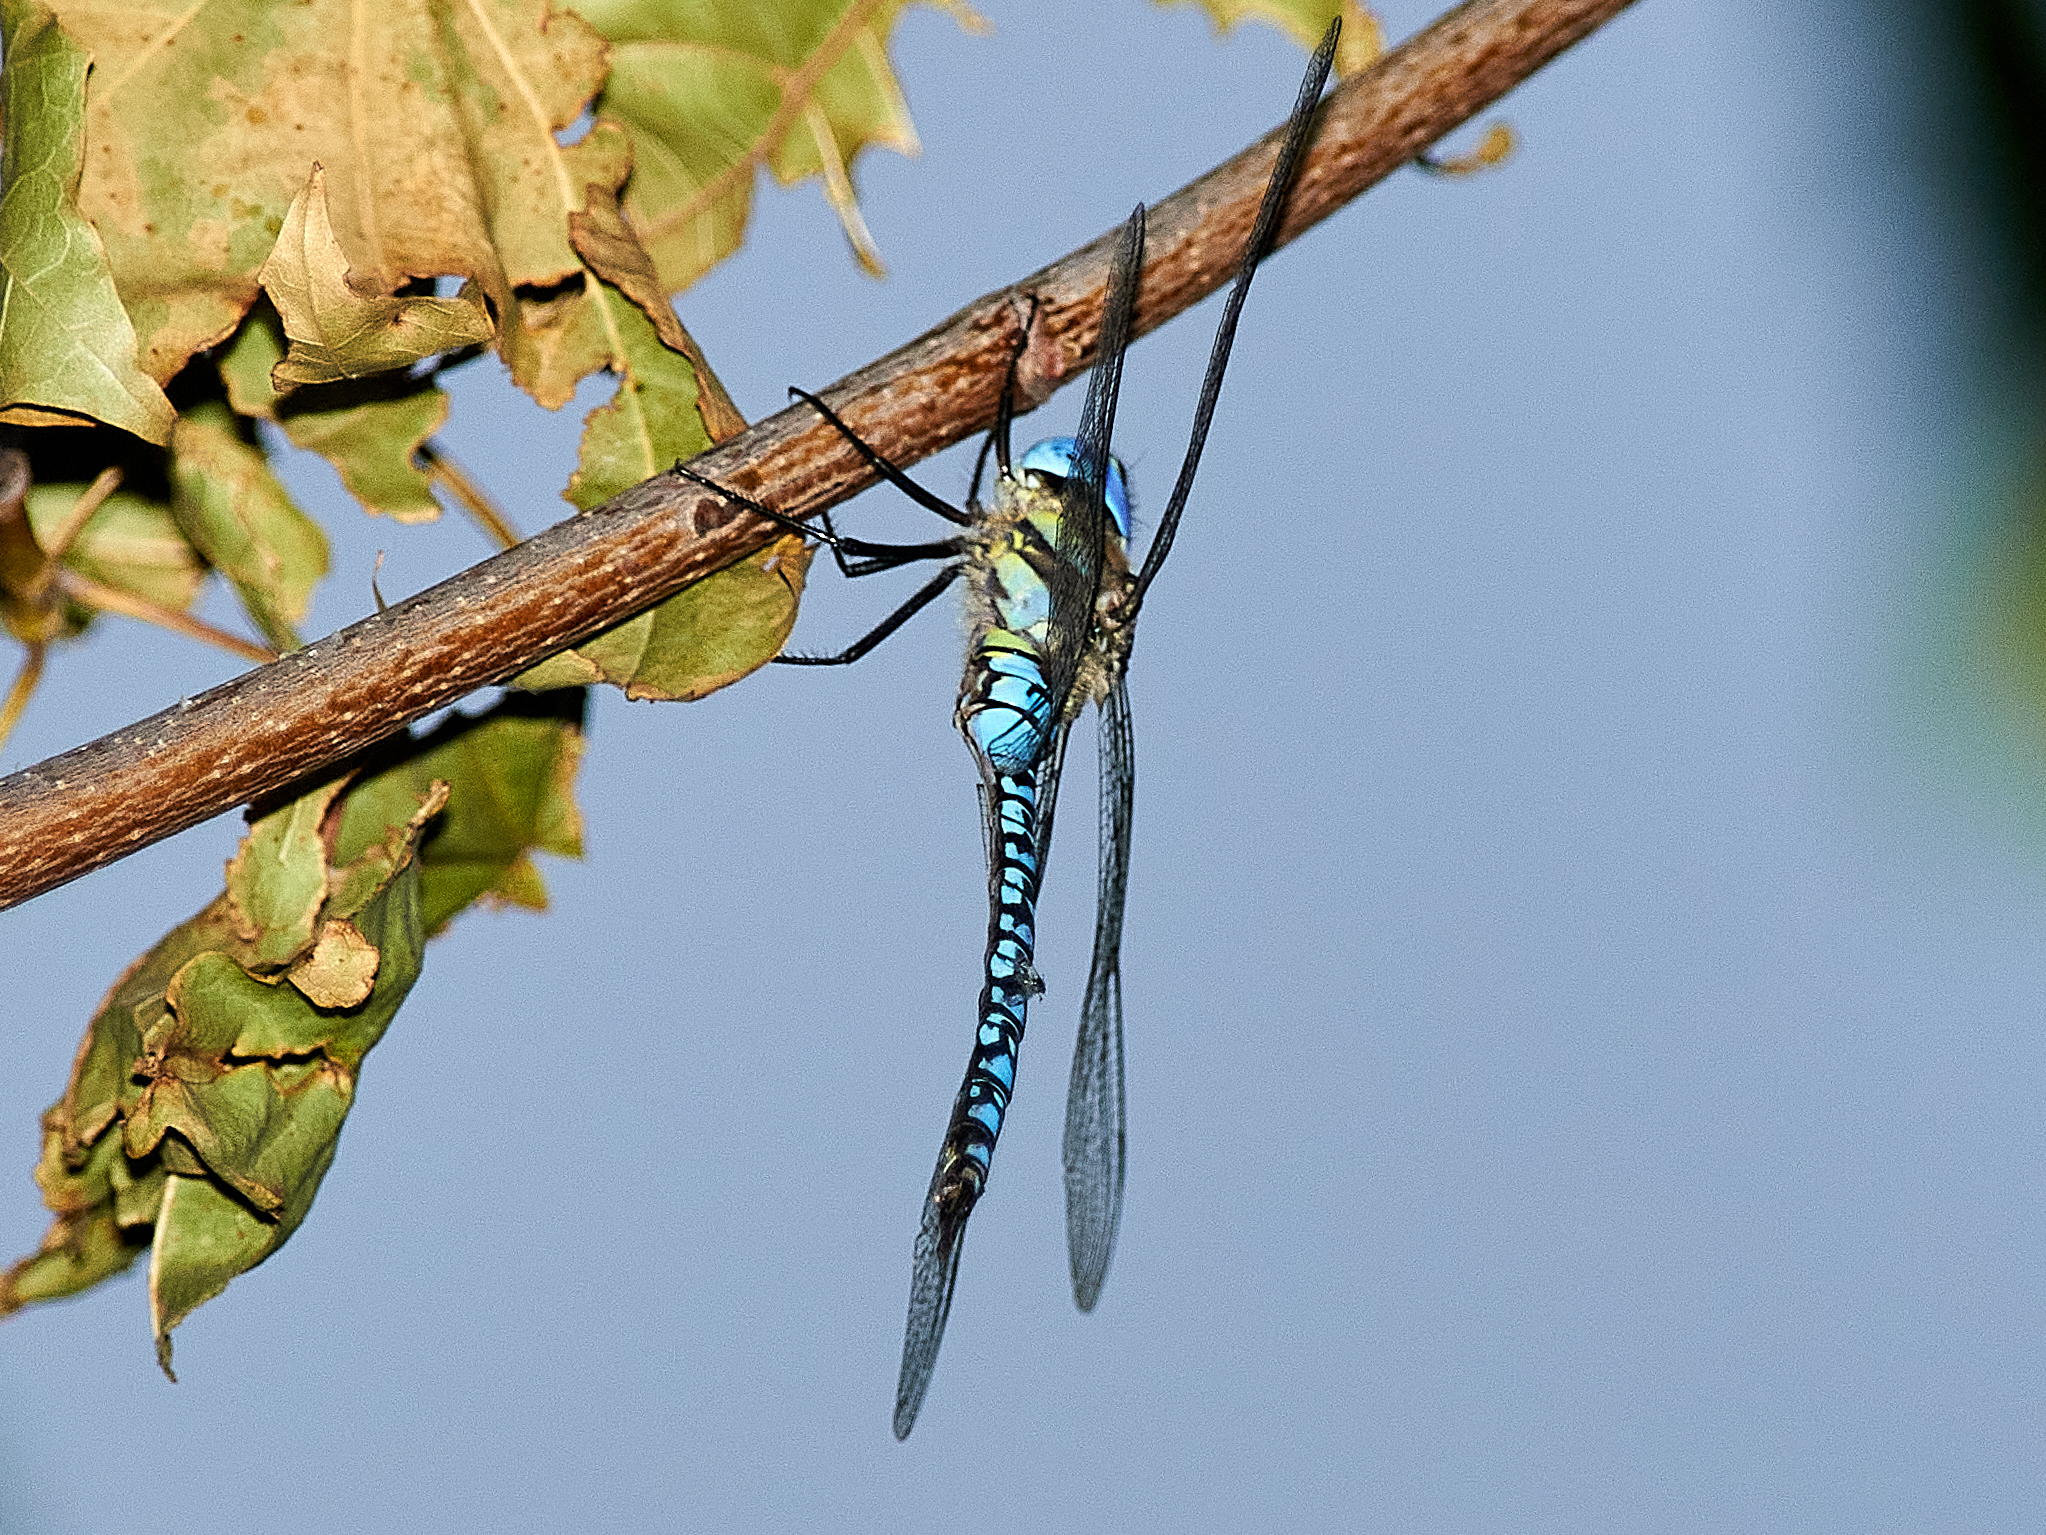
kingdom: Animalia
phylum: Arthropoda
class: Insecta
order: Odonata
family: Aeshnidae
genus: Aeshna
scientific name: Aeshna soneharai
